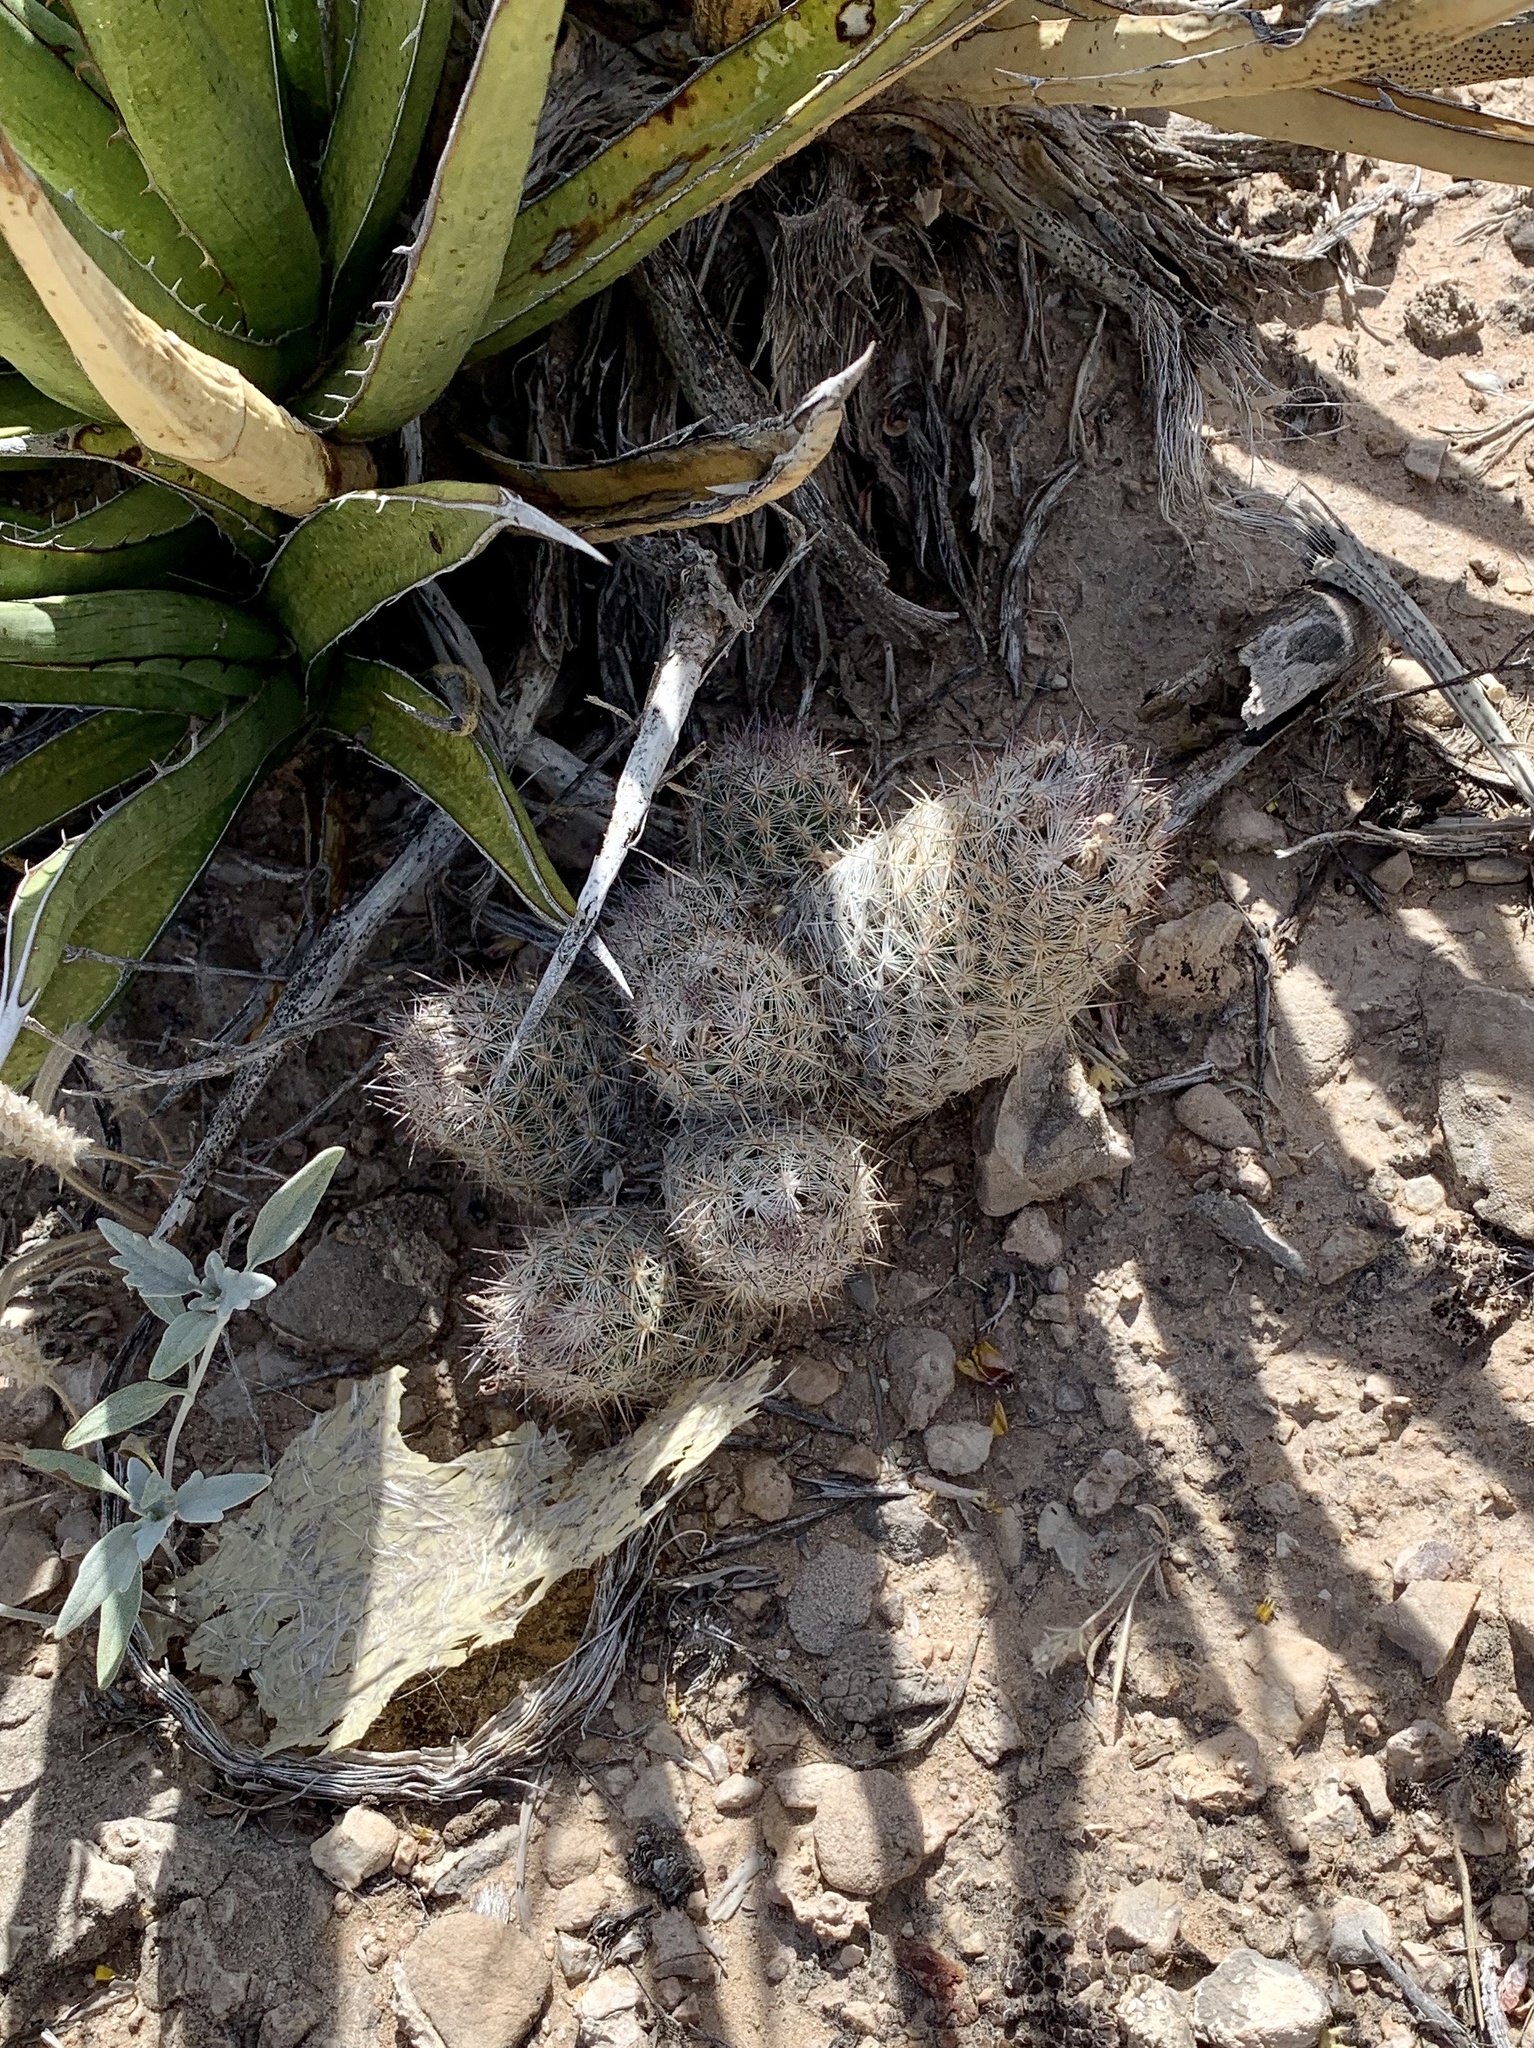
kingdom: Plantae
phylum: Tracheophyta
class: Magnoliopsida
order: Caryophyllales
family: Cactaceae
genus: Pelecyphora
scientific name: Pelecyphora tuberculosa
